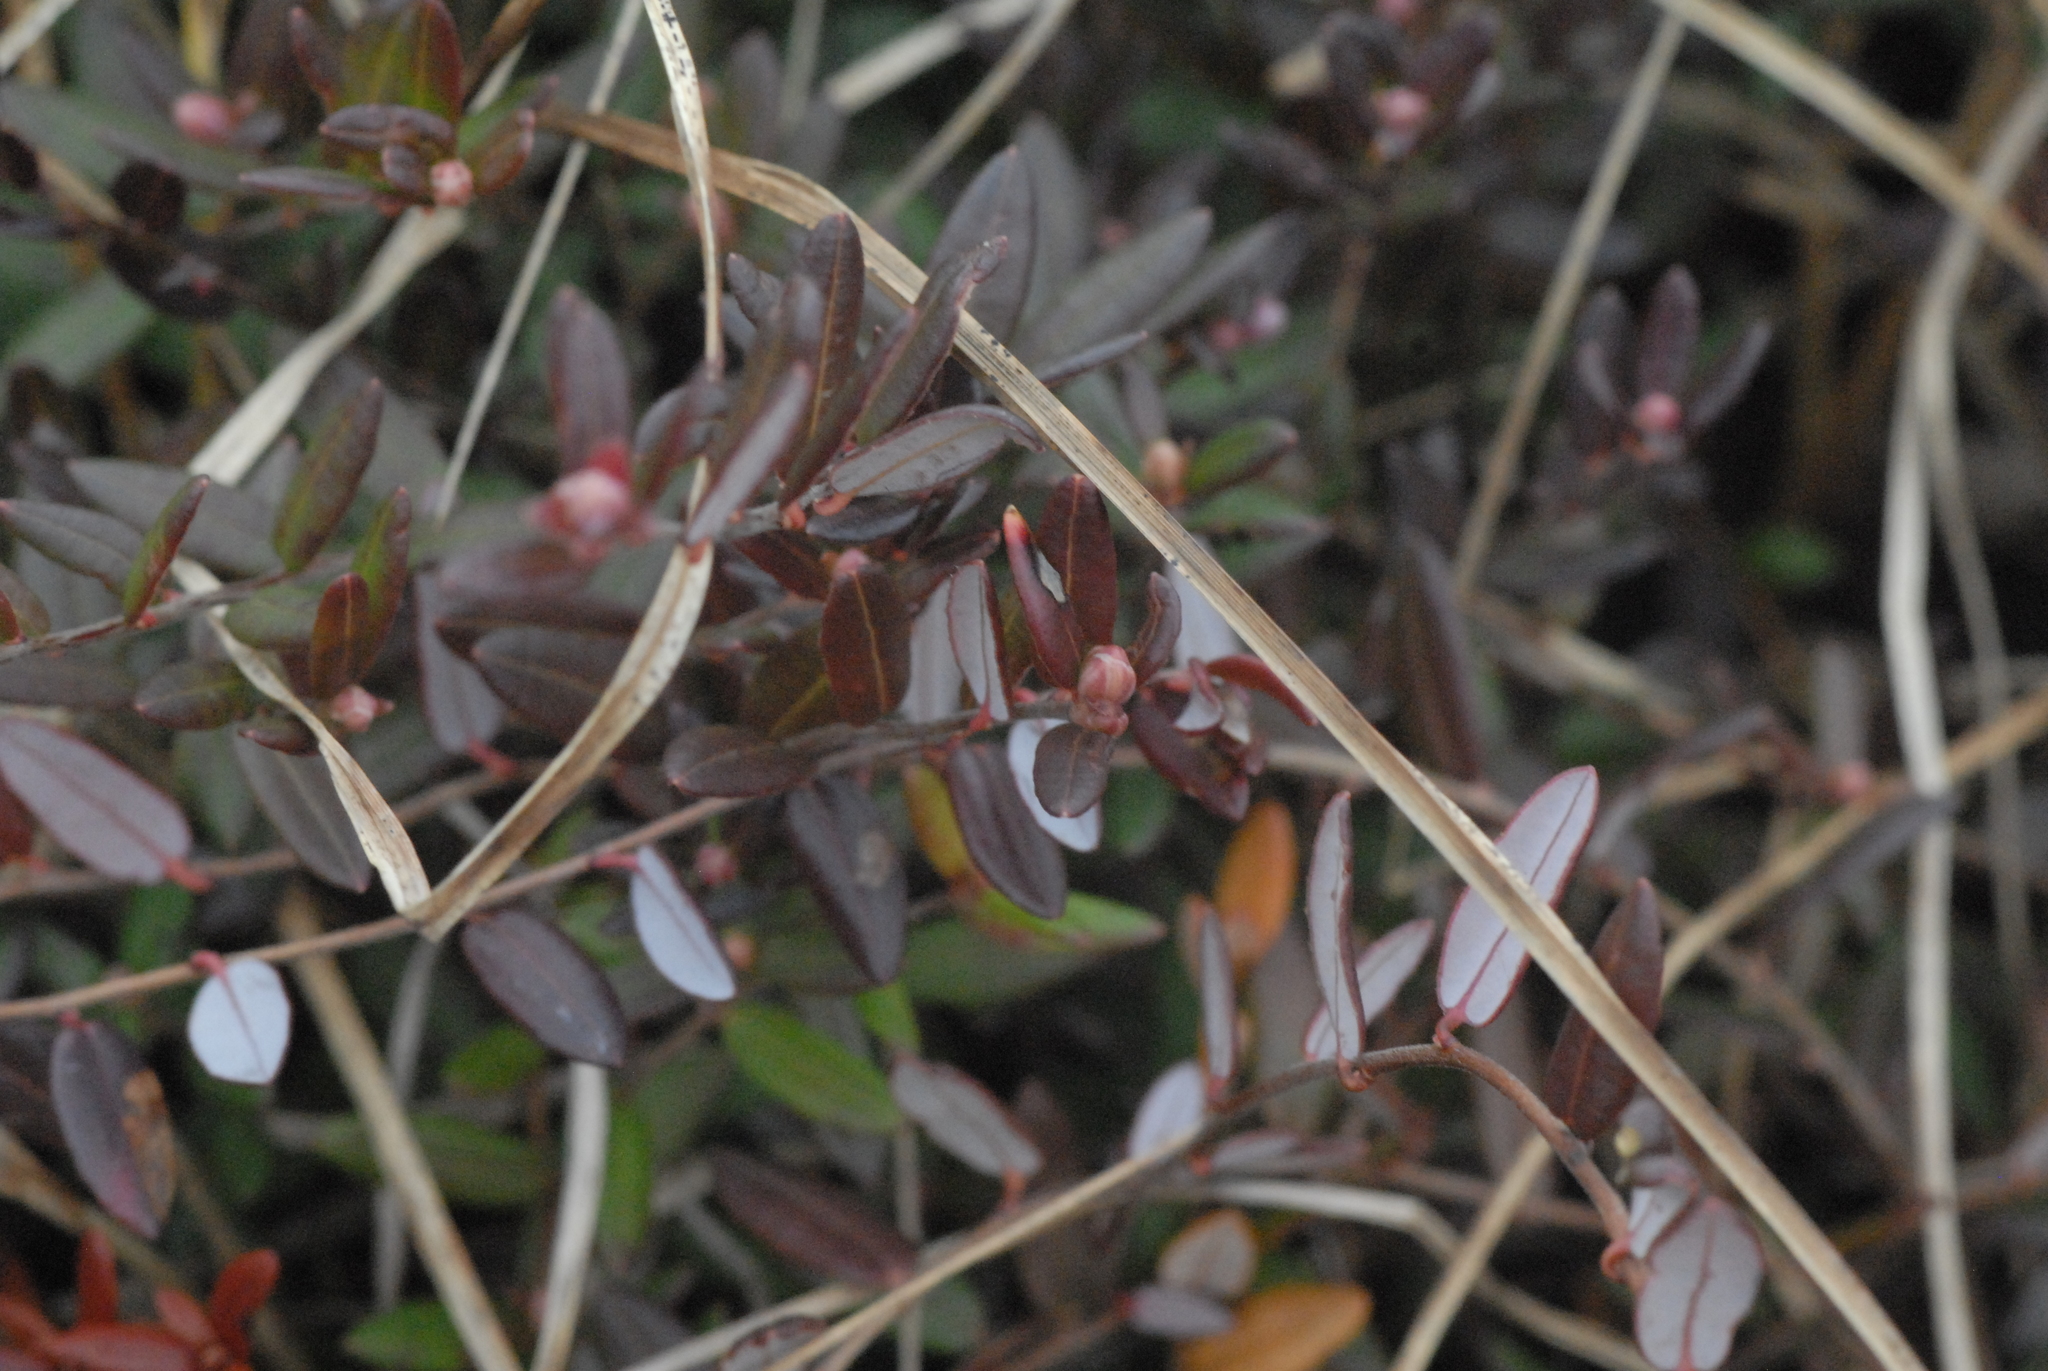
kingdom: Plantae
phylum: Tracheophyta
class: Magnoliopsida
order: Ericales
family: Ericaceae
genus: Vaccinium
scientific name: Vaccinium oxycoccos
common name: Cranberry
